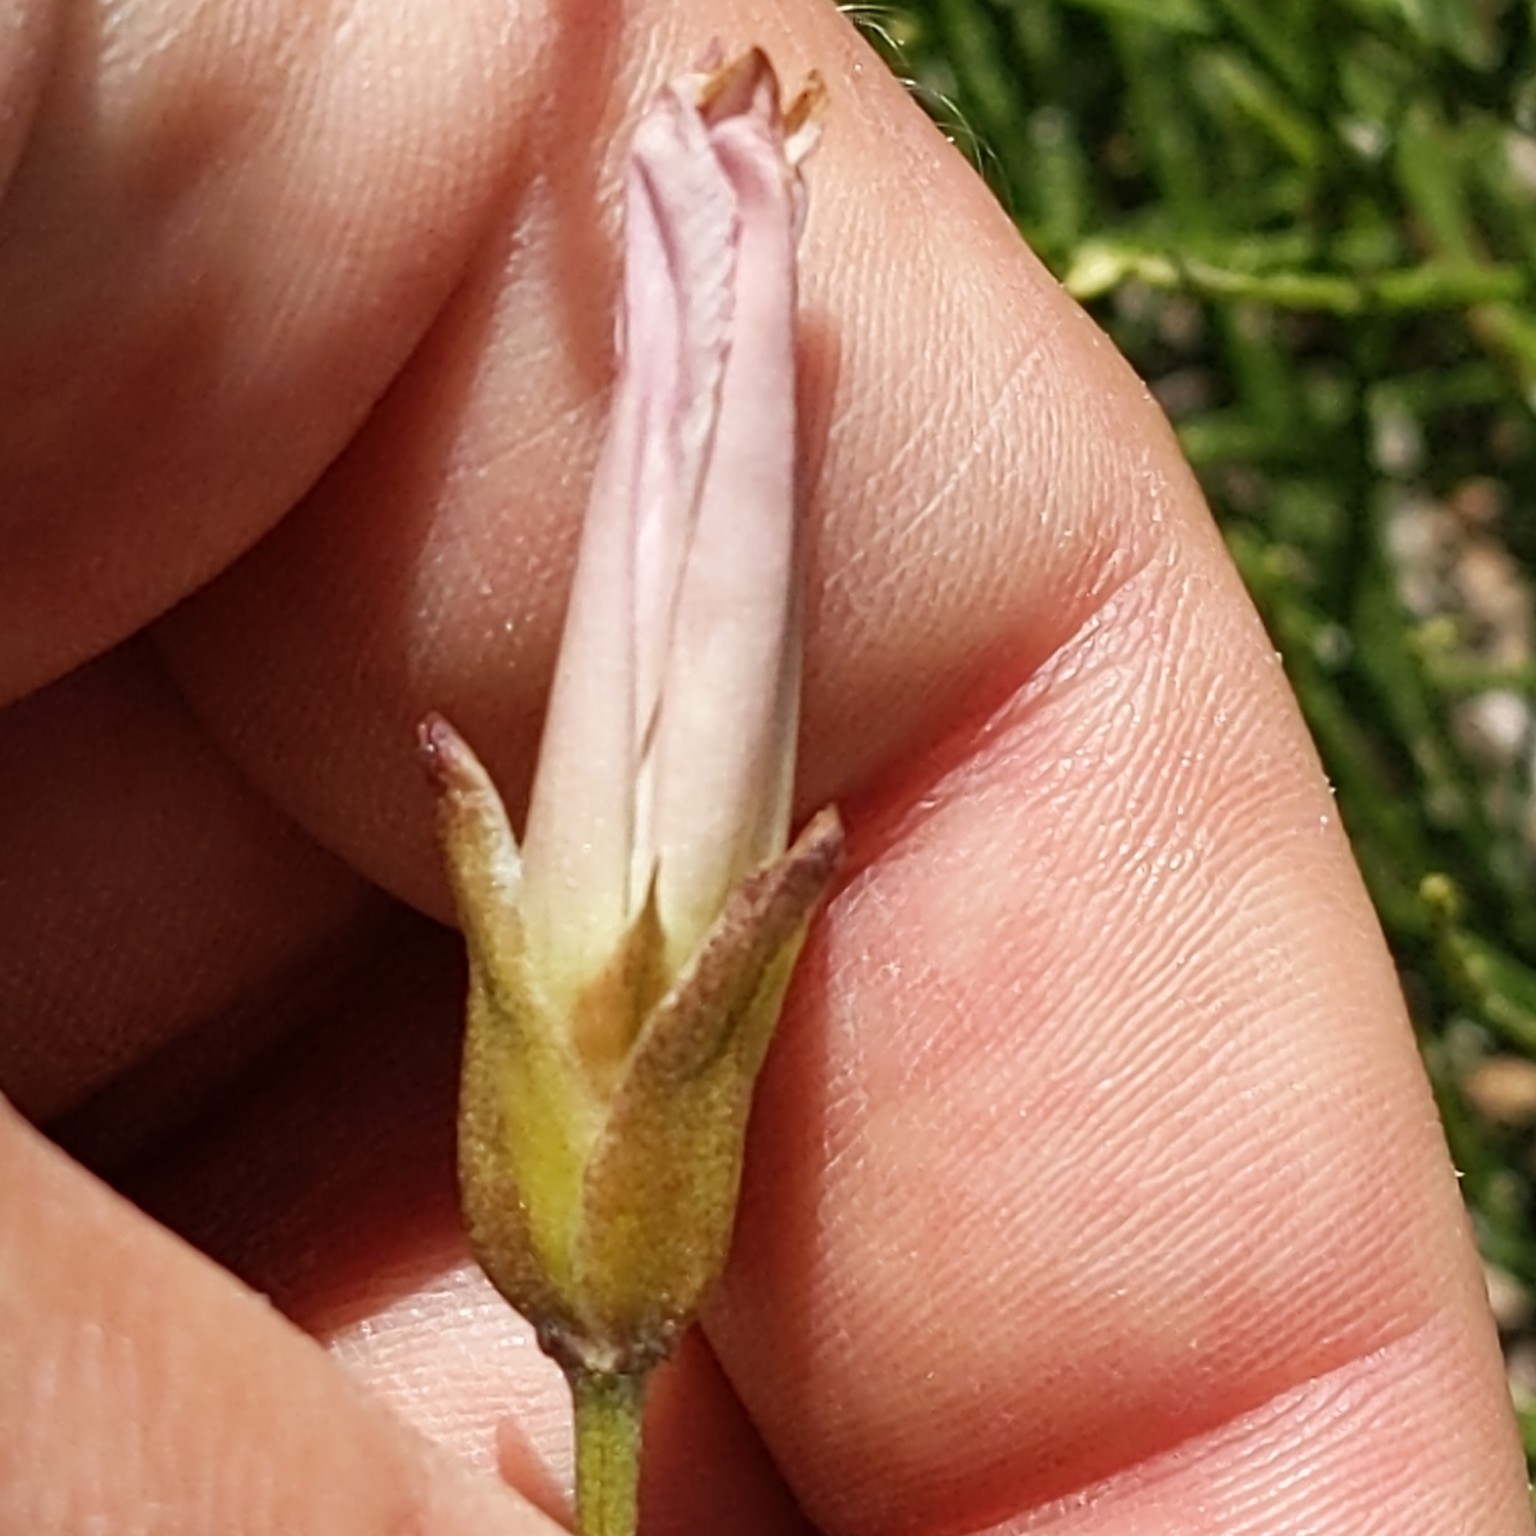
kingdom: Plantae
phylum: Tracheophyta
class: Magnoliopsida
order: Solanales
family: Convolvulaceae
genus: Calystegia
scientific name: Calystegia macrostegia
